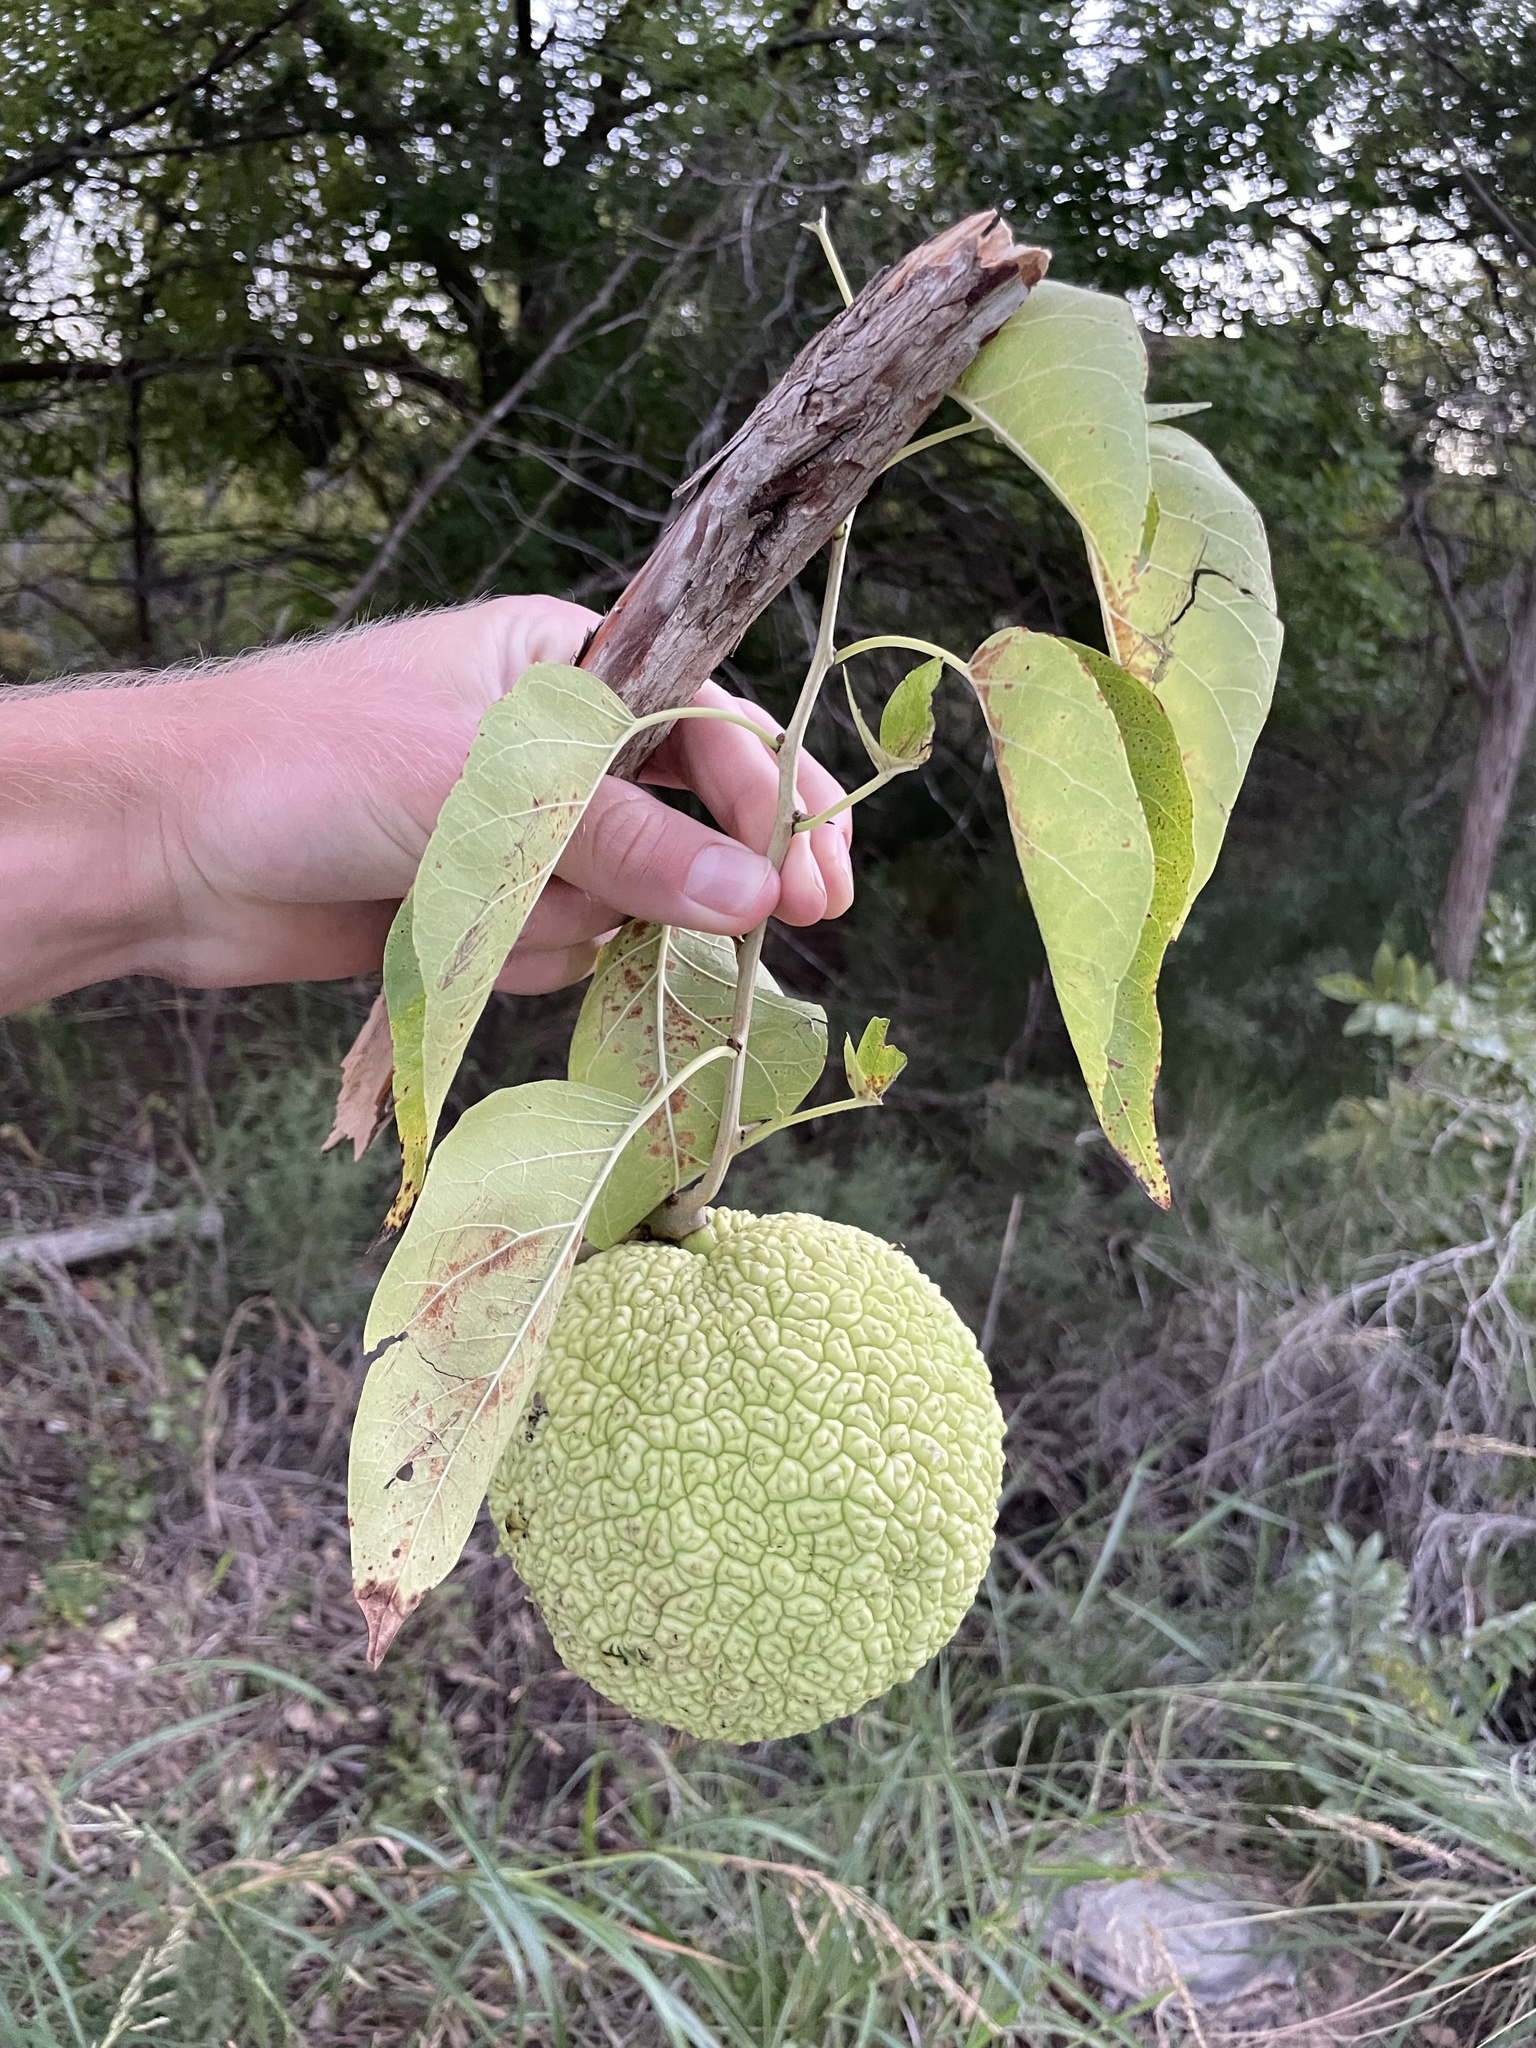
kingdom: Plantae
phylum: Tracheophyta
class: Magnoliopsida
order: Rosales
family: Moraceae
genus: Maclura
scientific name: Maclura pomifera
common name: Osage-orange
